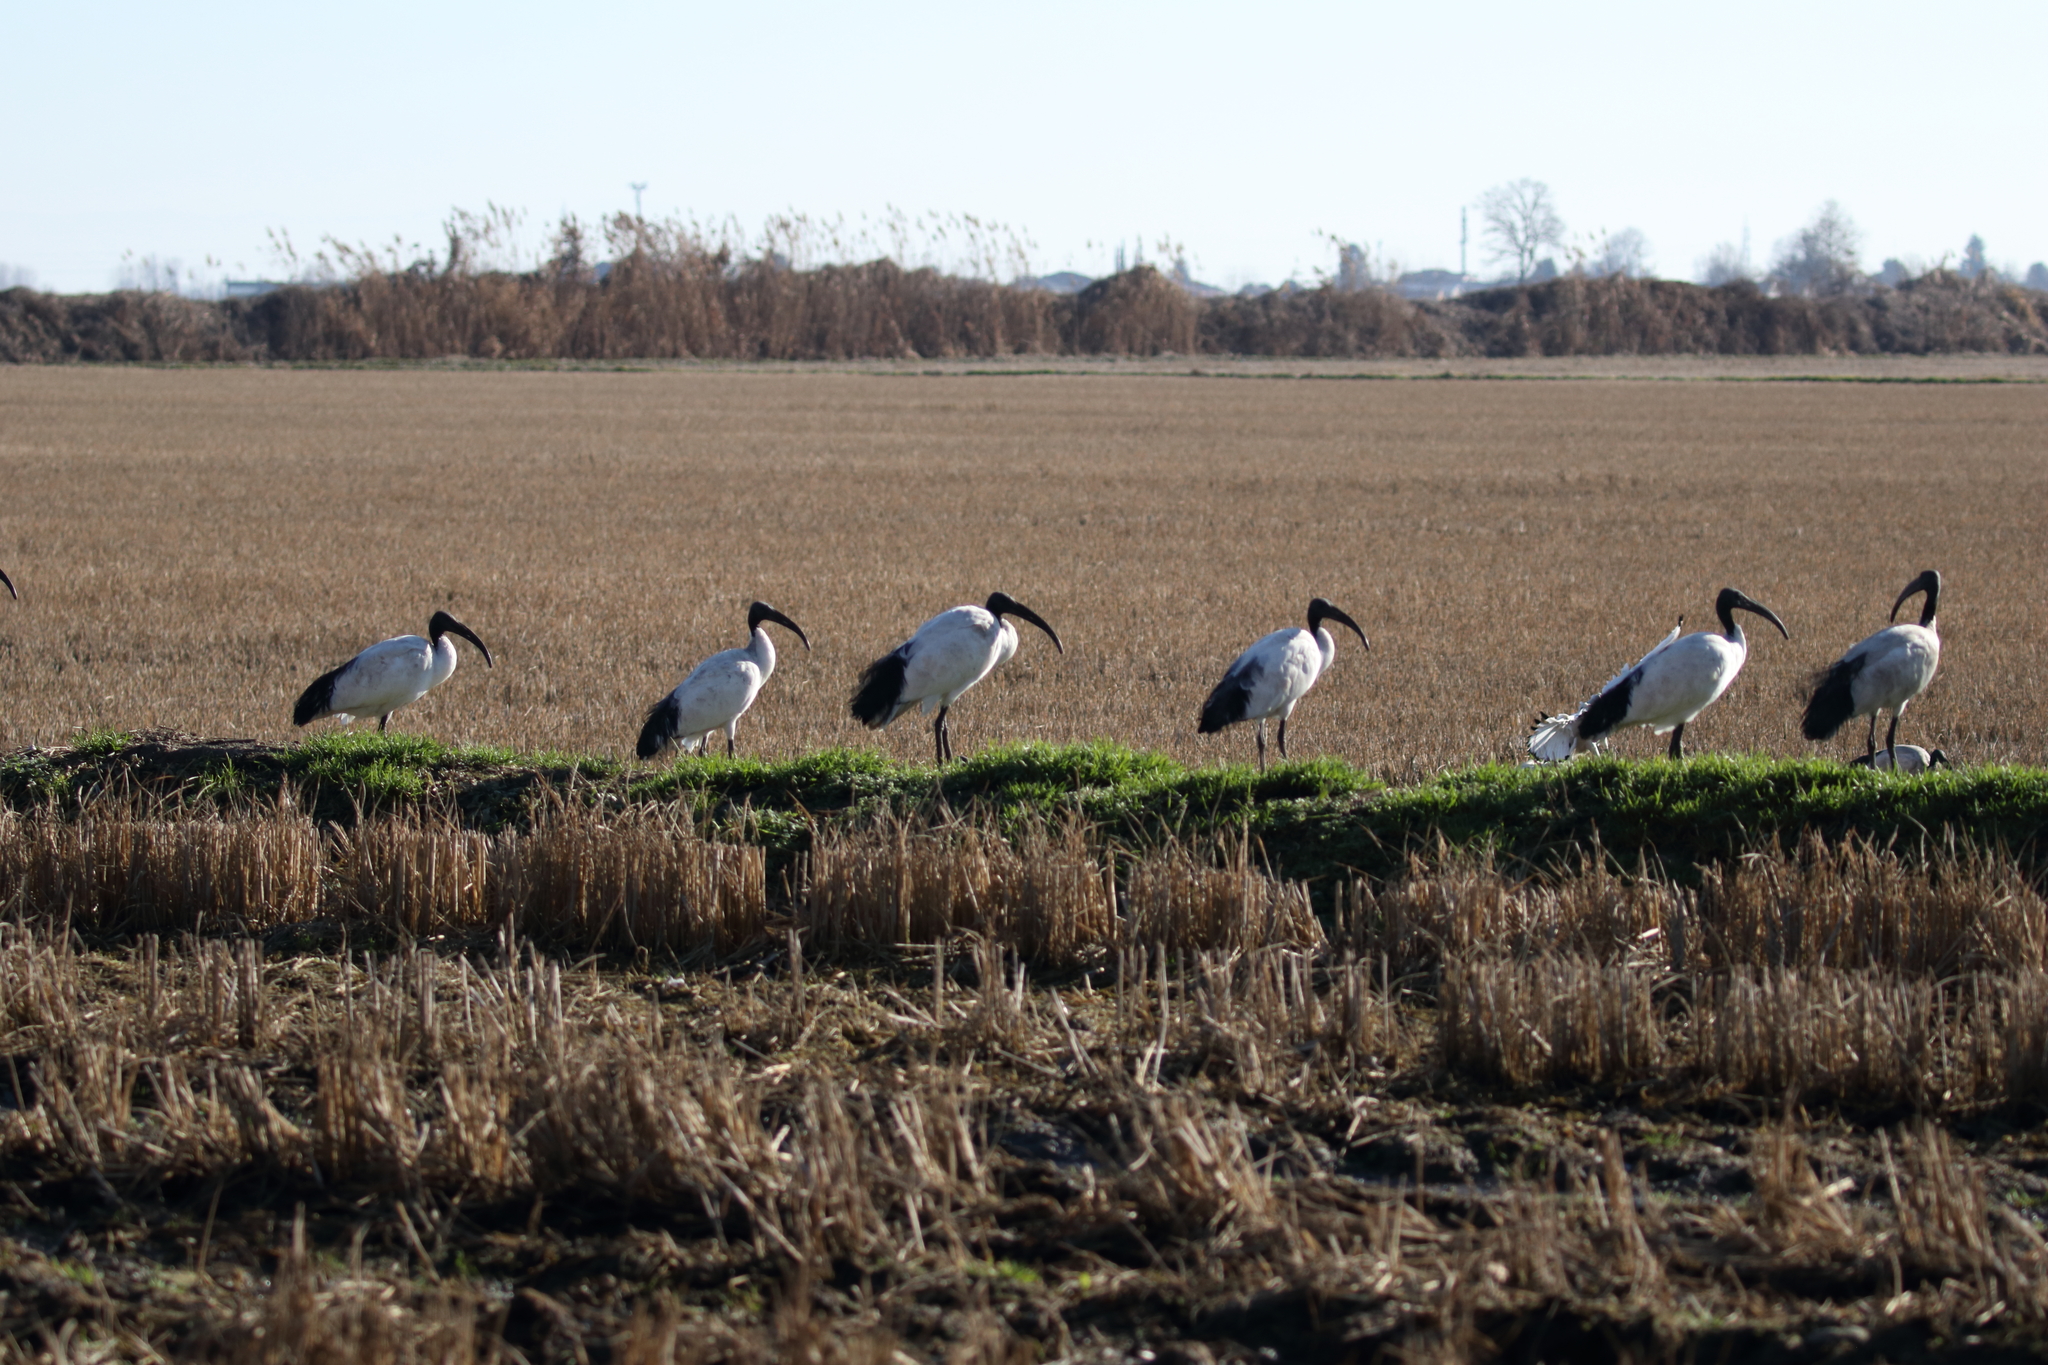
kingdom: Animalia
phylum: Chordata
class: Aves
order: Pelecaniformes
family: Threskiornithidae
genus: Threskiornis
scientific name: Threskiornis aethiopicus
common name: Sacred ibis
